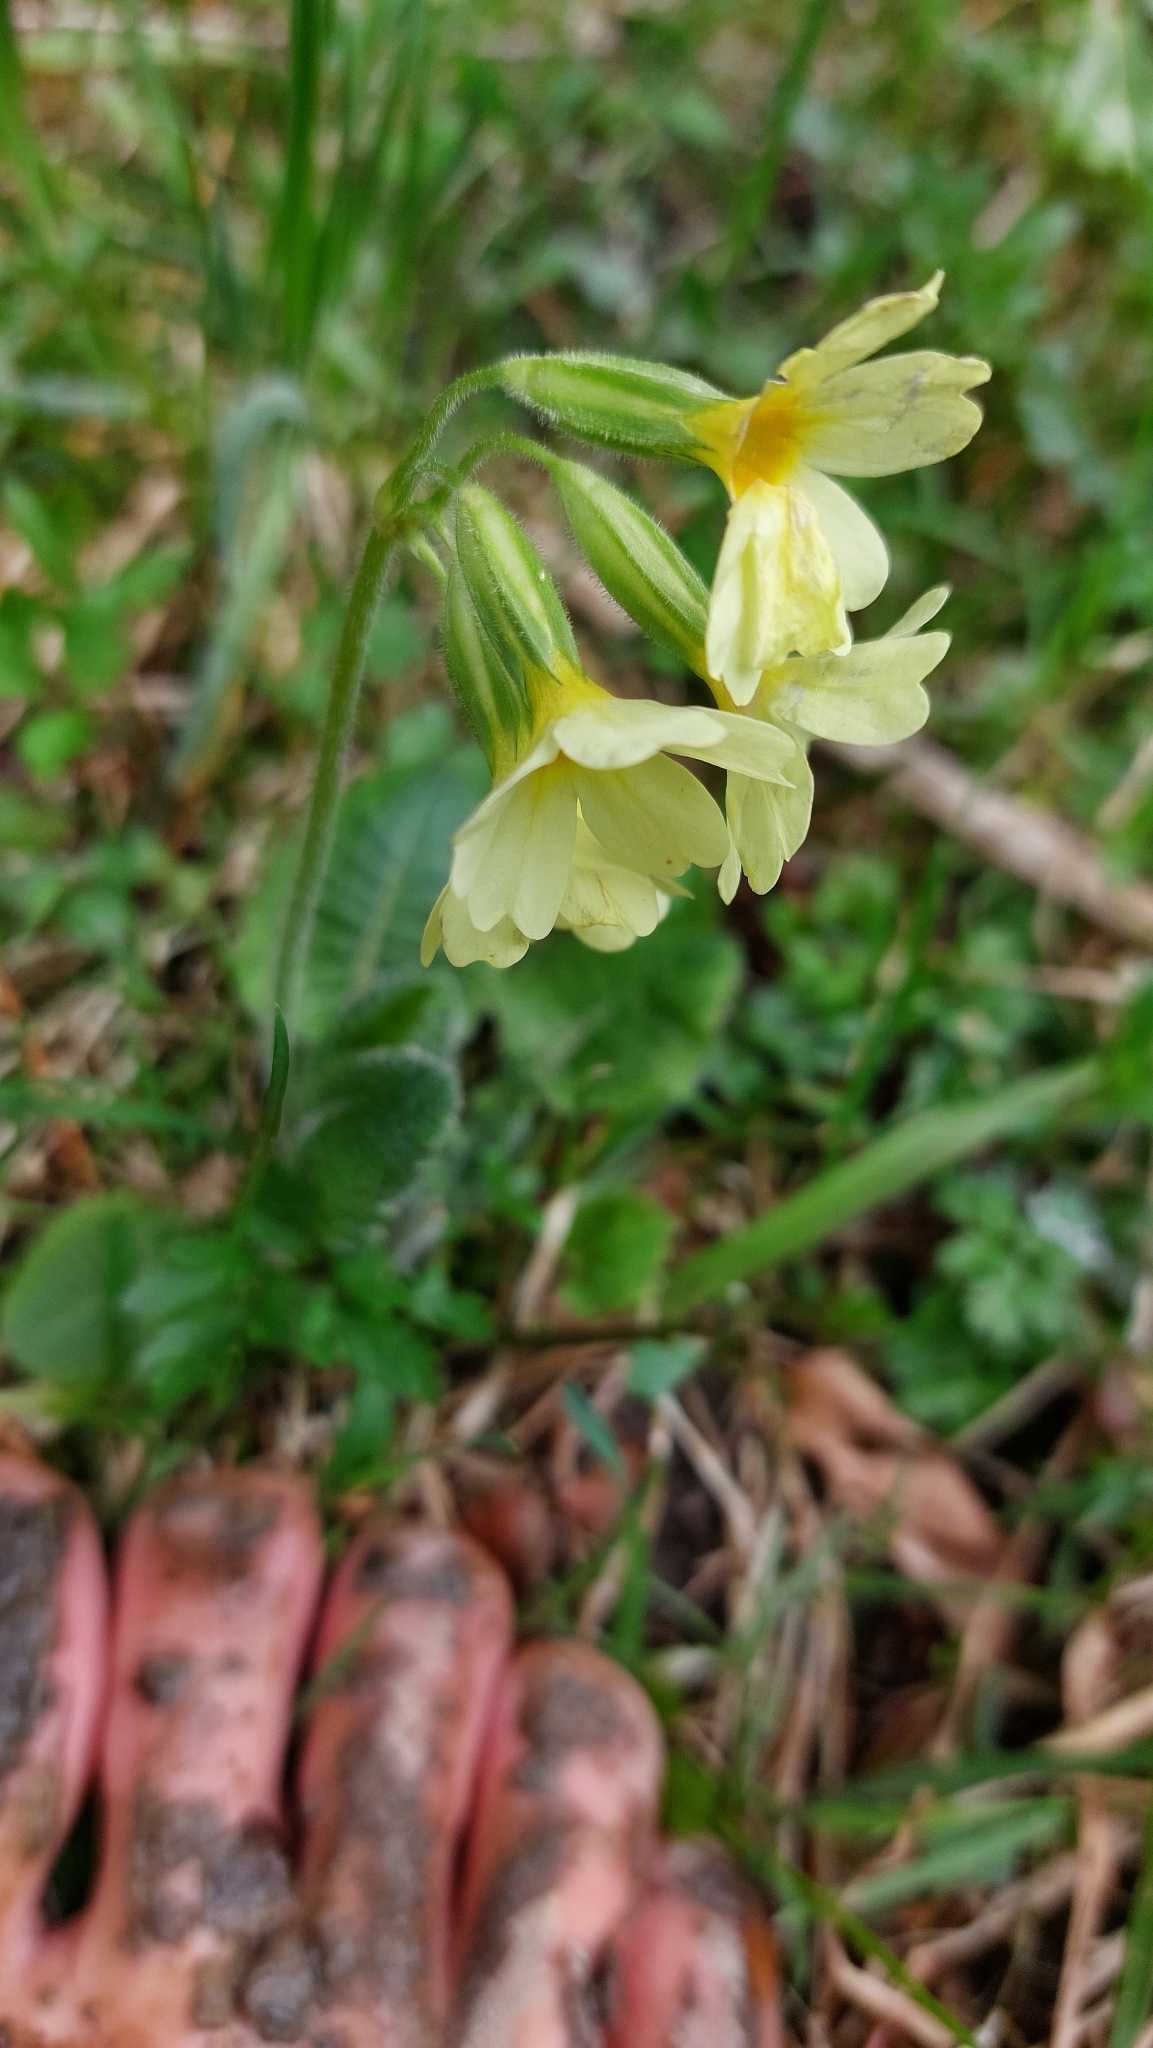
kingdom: Plantae
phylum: Tracheophyta
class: Magnoliopsida
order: Ericales
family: Primulaceae
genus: Primula
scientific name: Primula elatior
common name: Oxlip
